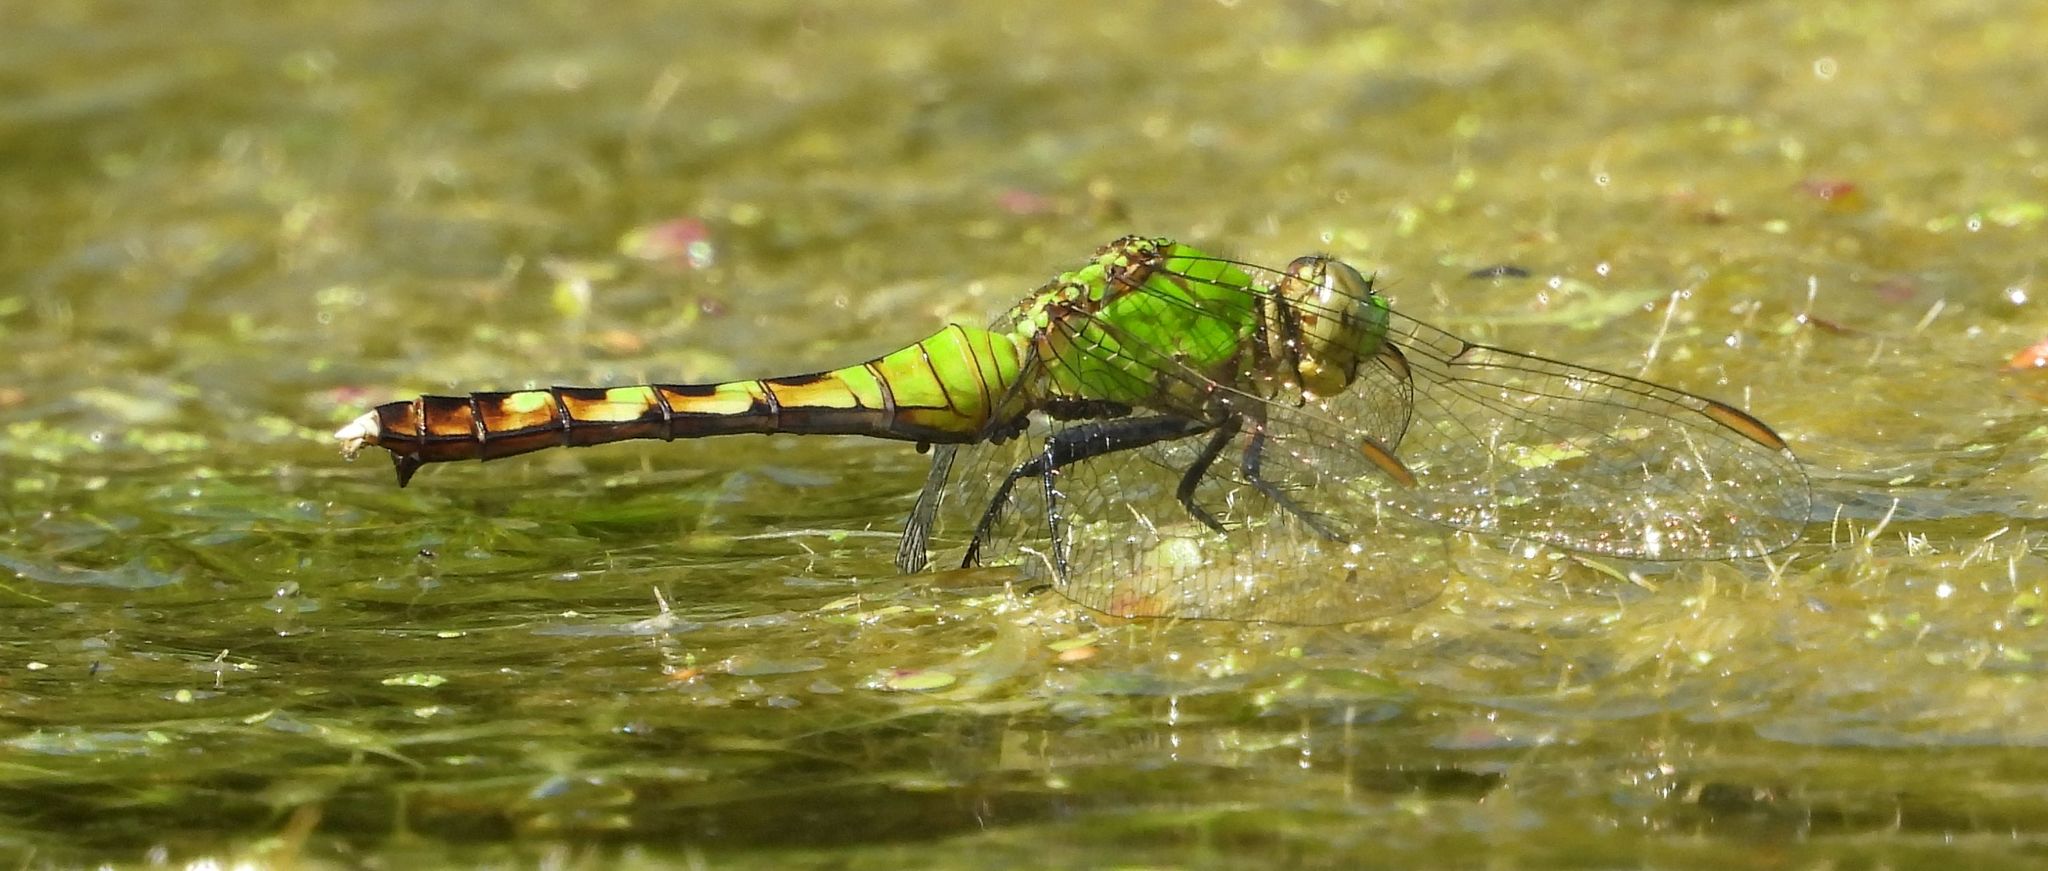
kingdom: Animalia
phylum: Arthropoda
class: Insecta
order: Odonata
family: Libellulidae
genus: Erythemis
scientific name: Erythemis simplicicollis
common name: Eastern pondhawk
